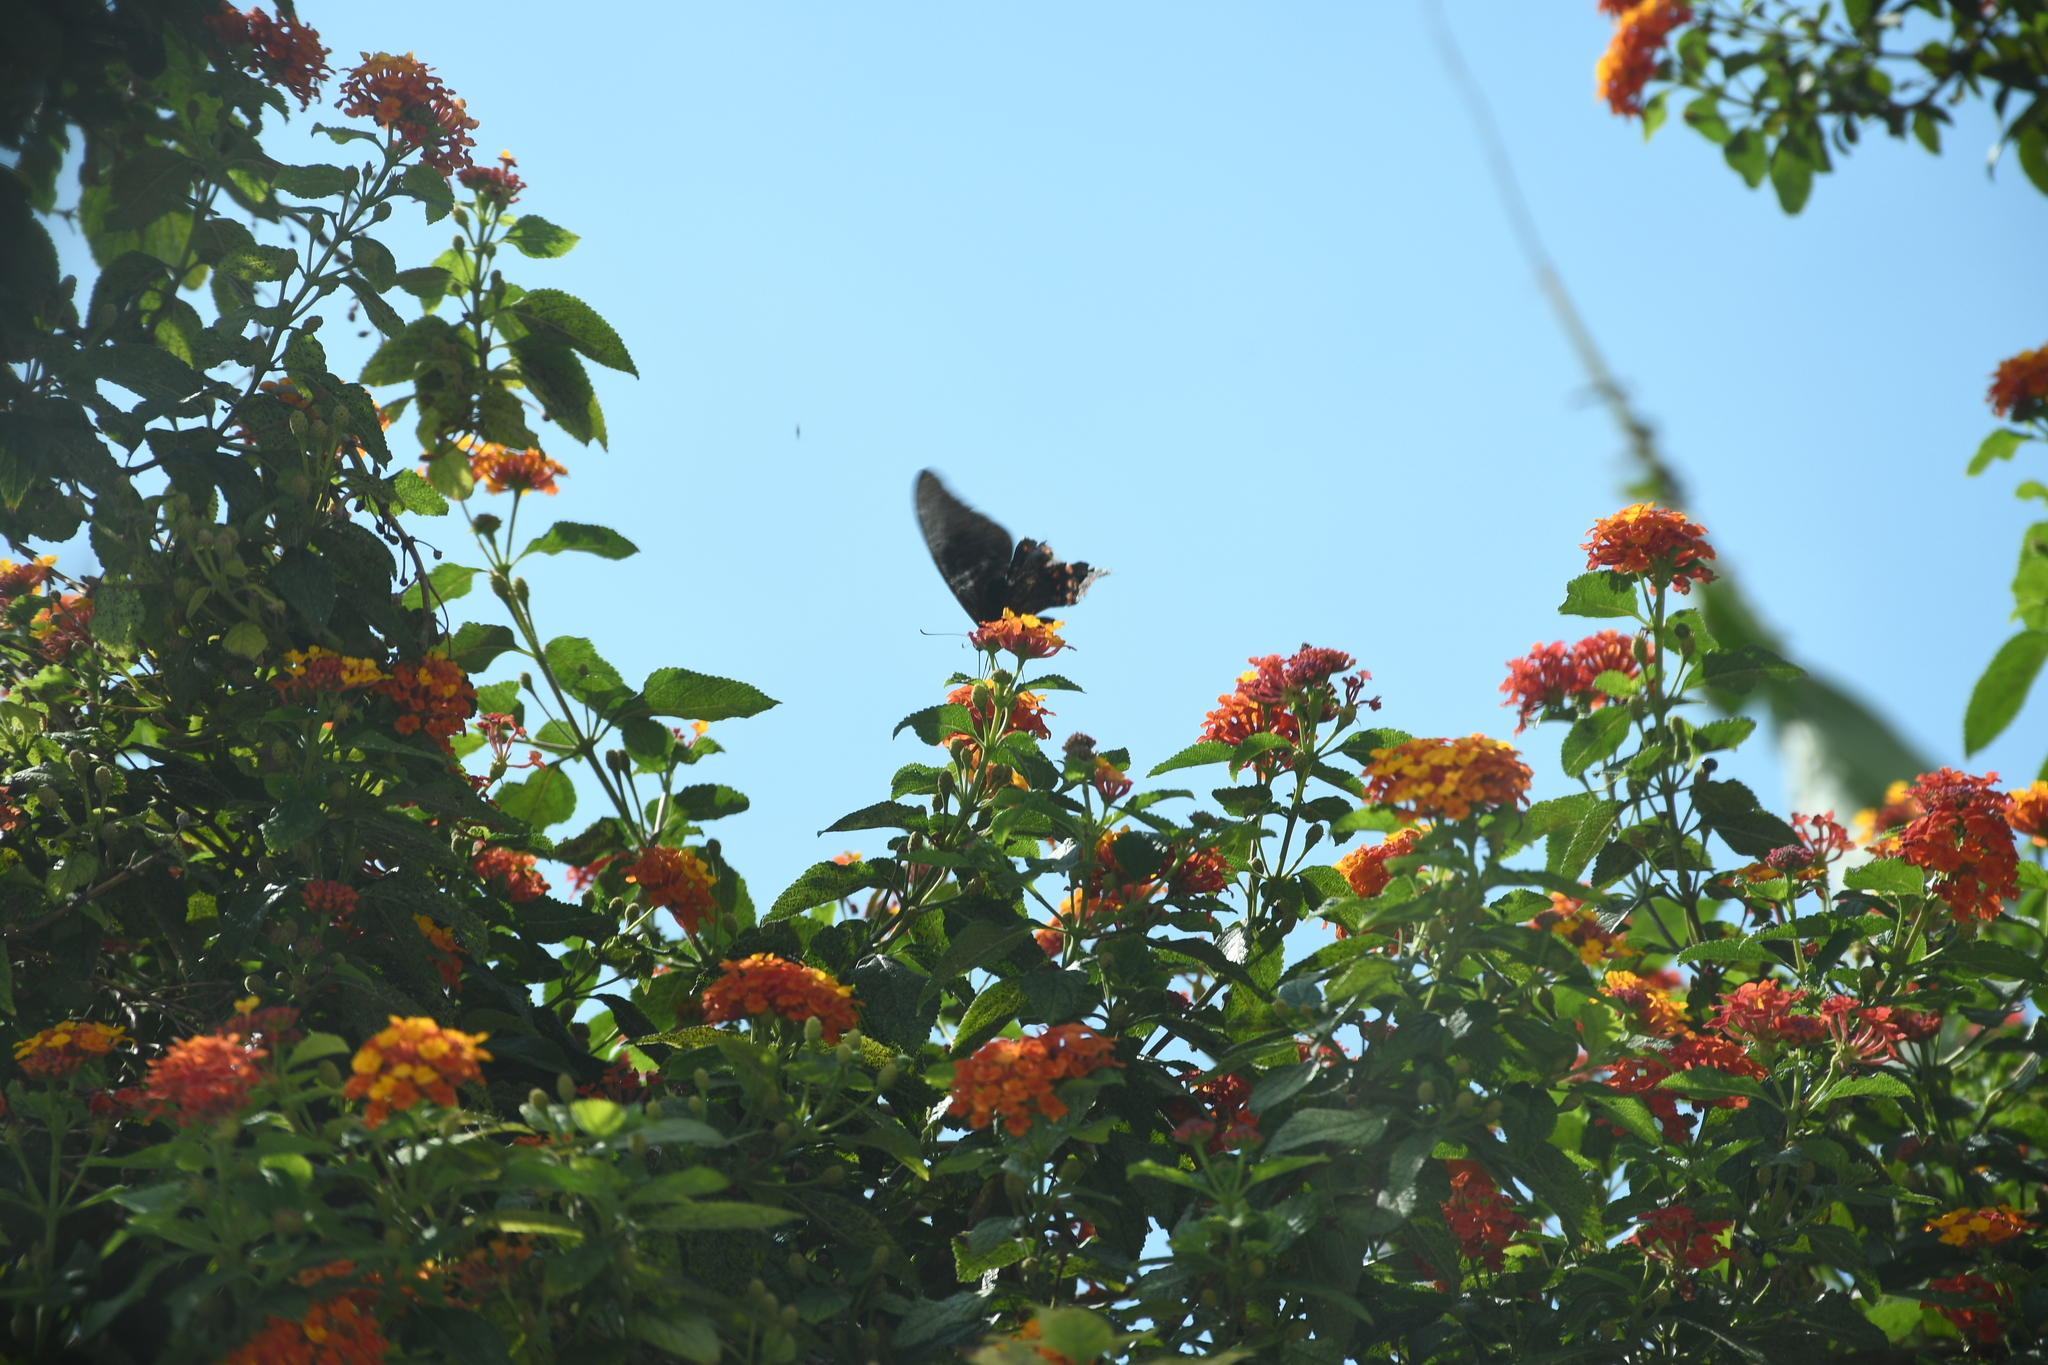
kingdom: Animalia
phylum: Arthropoda
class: Insecta
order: Lepidoptera
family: Papilionidae
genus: Heraclides
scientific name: Heraclides rogeri
